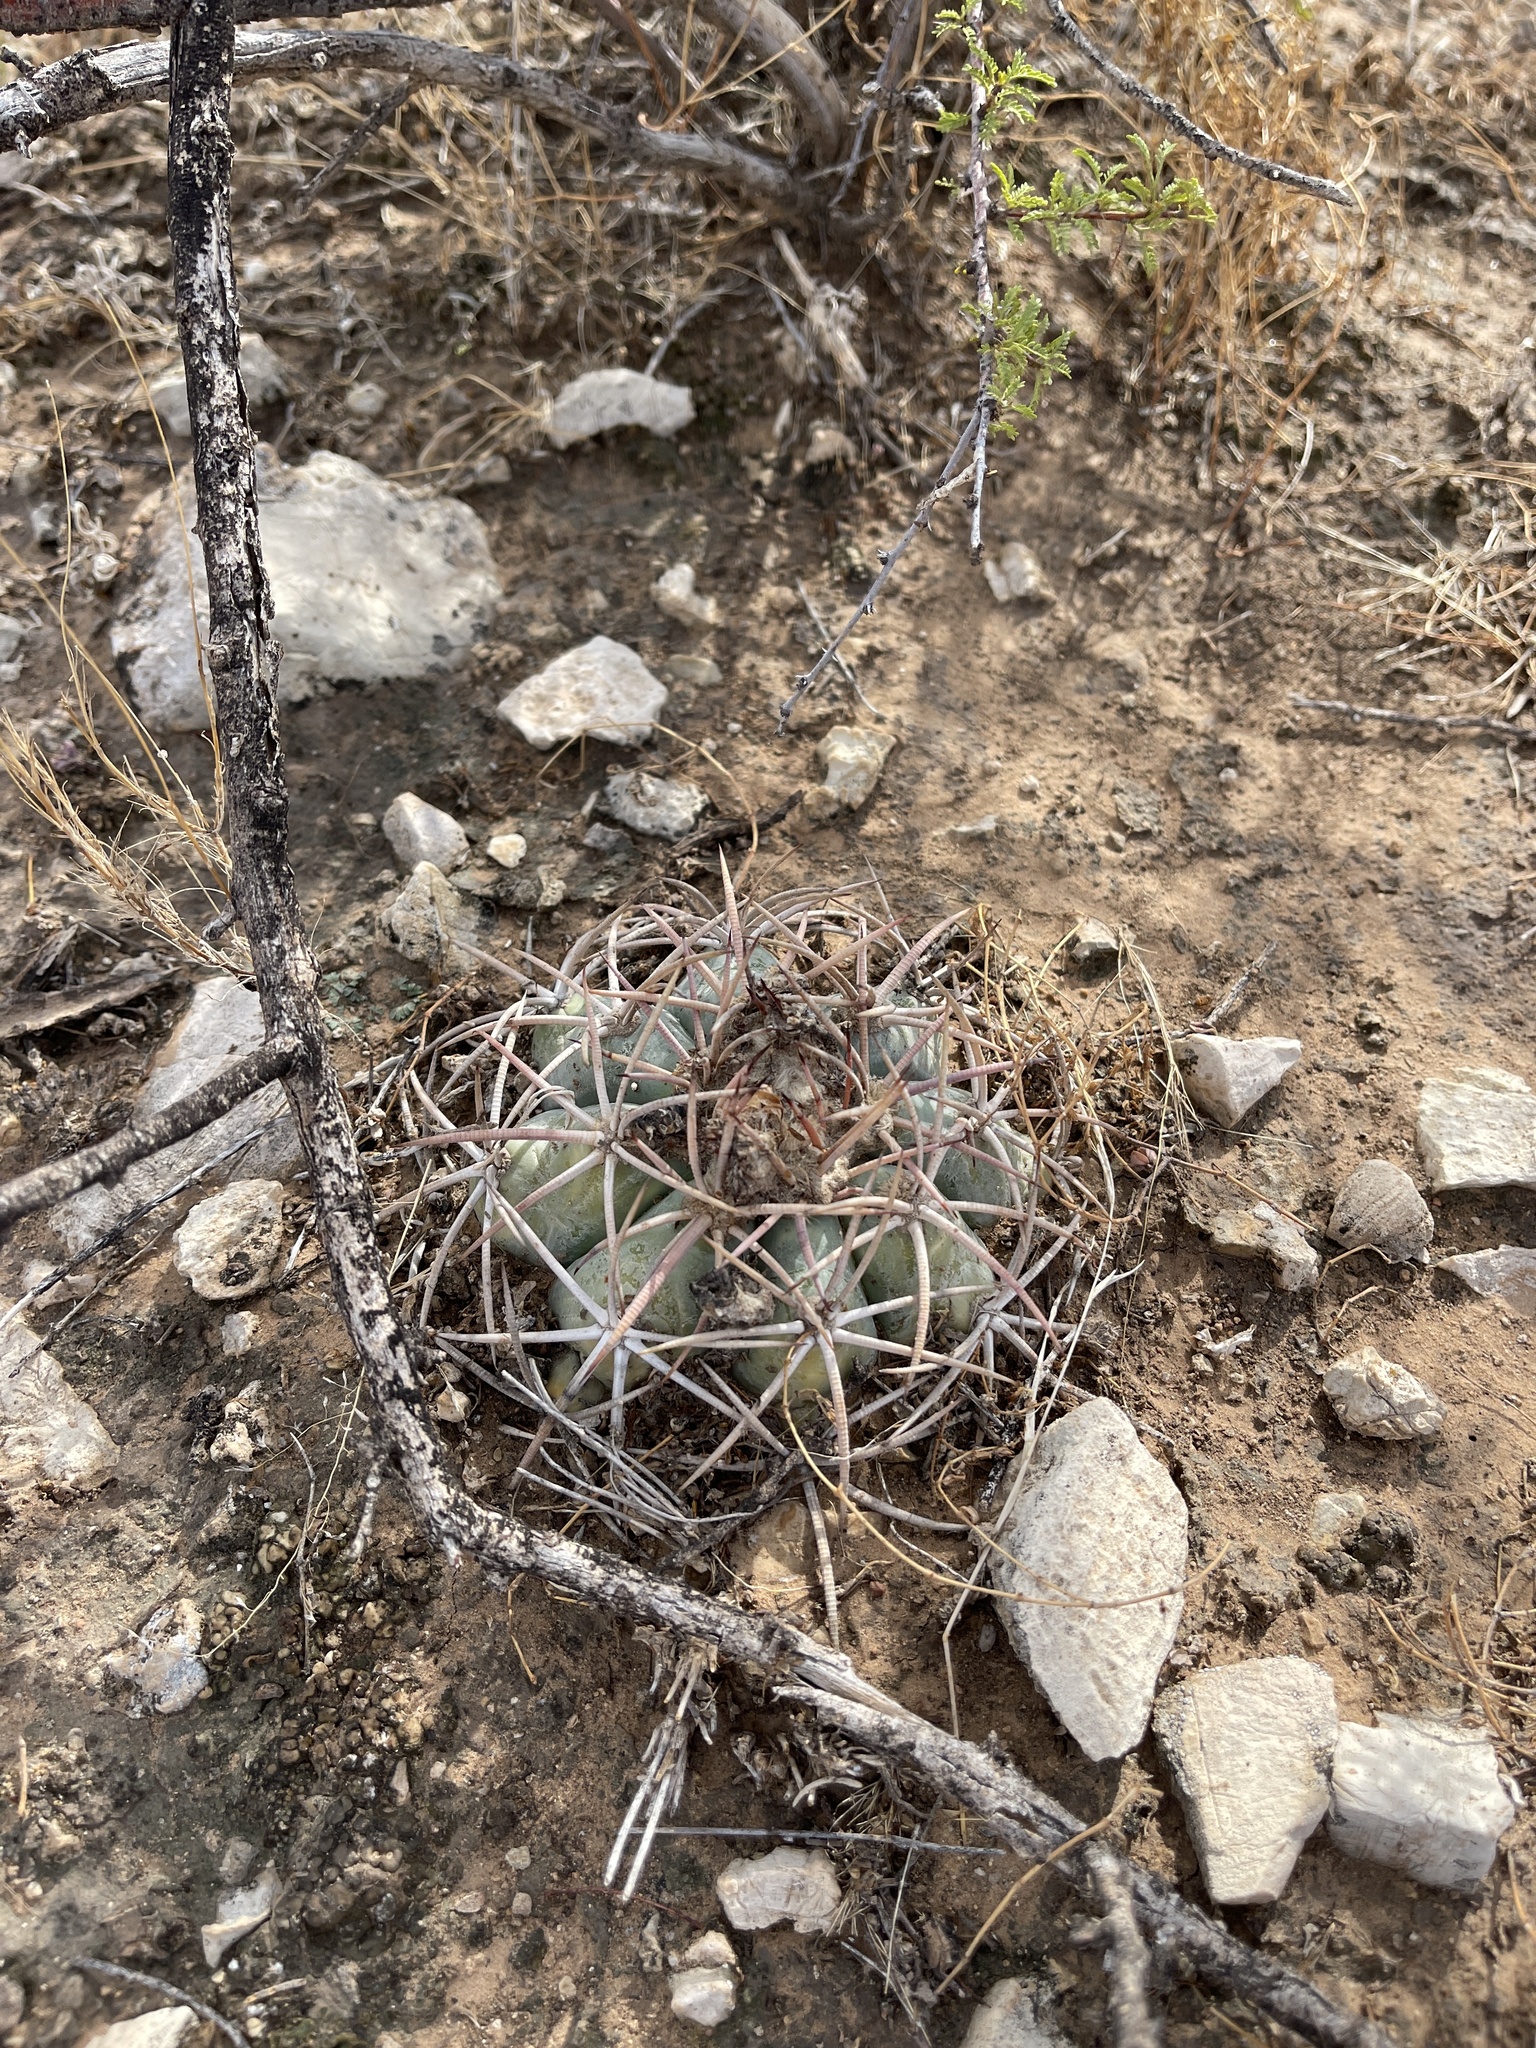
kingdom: Plantae
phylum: Tracheophyta
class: Magnoliopsida
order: Caryophyllales
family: Cactaceae
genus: Echinocactus
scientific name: Echinocactus horizonthalonius
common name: Devilshead
